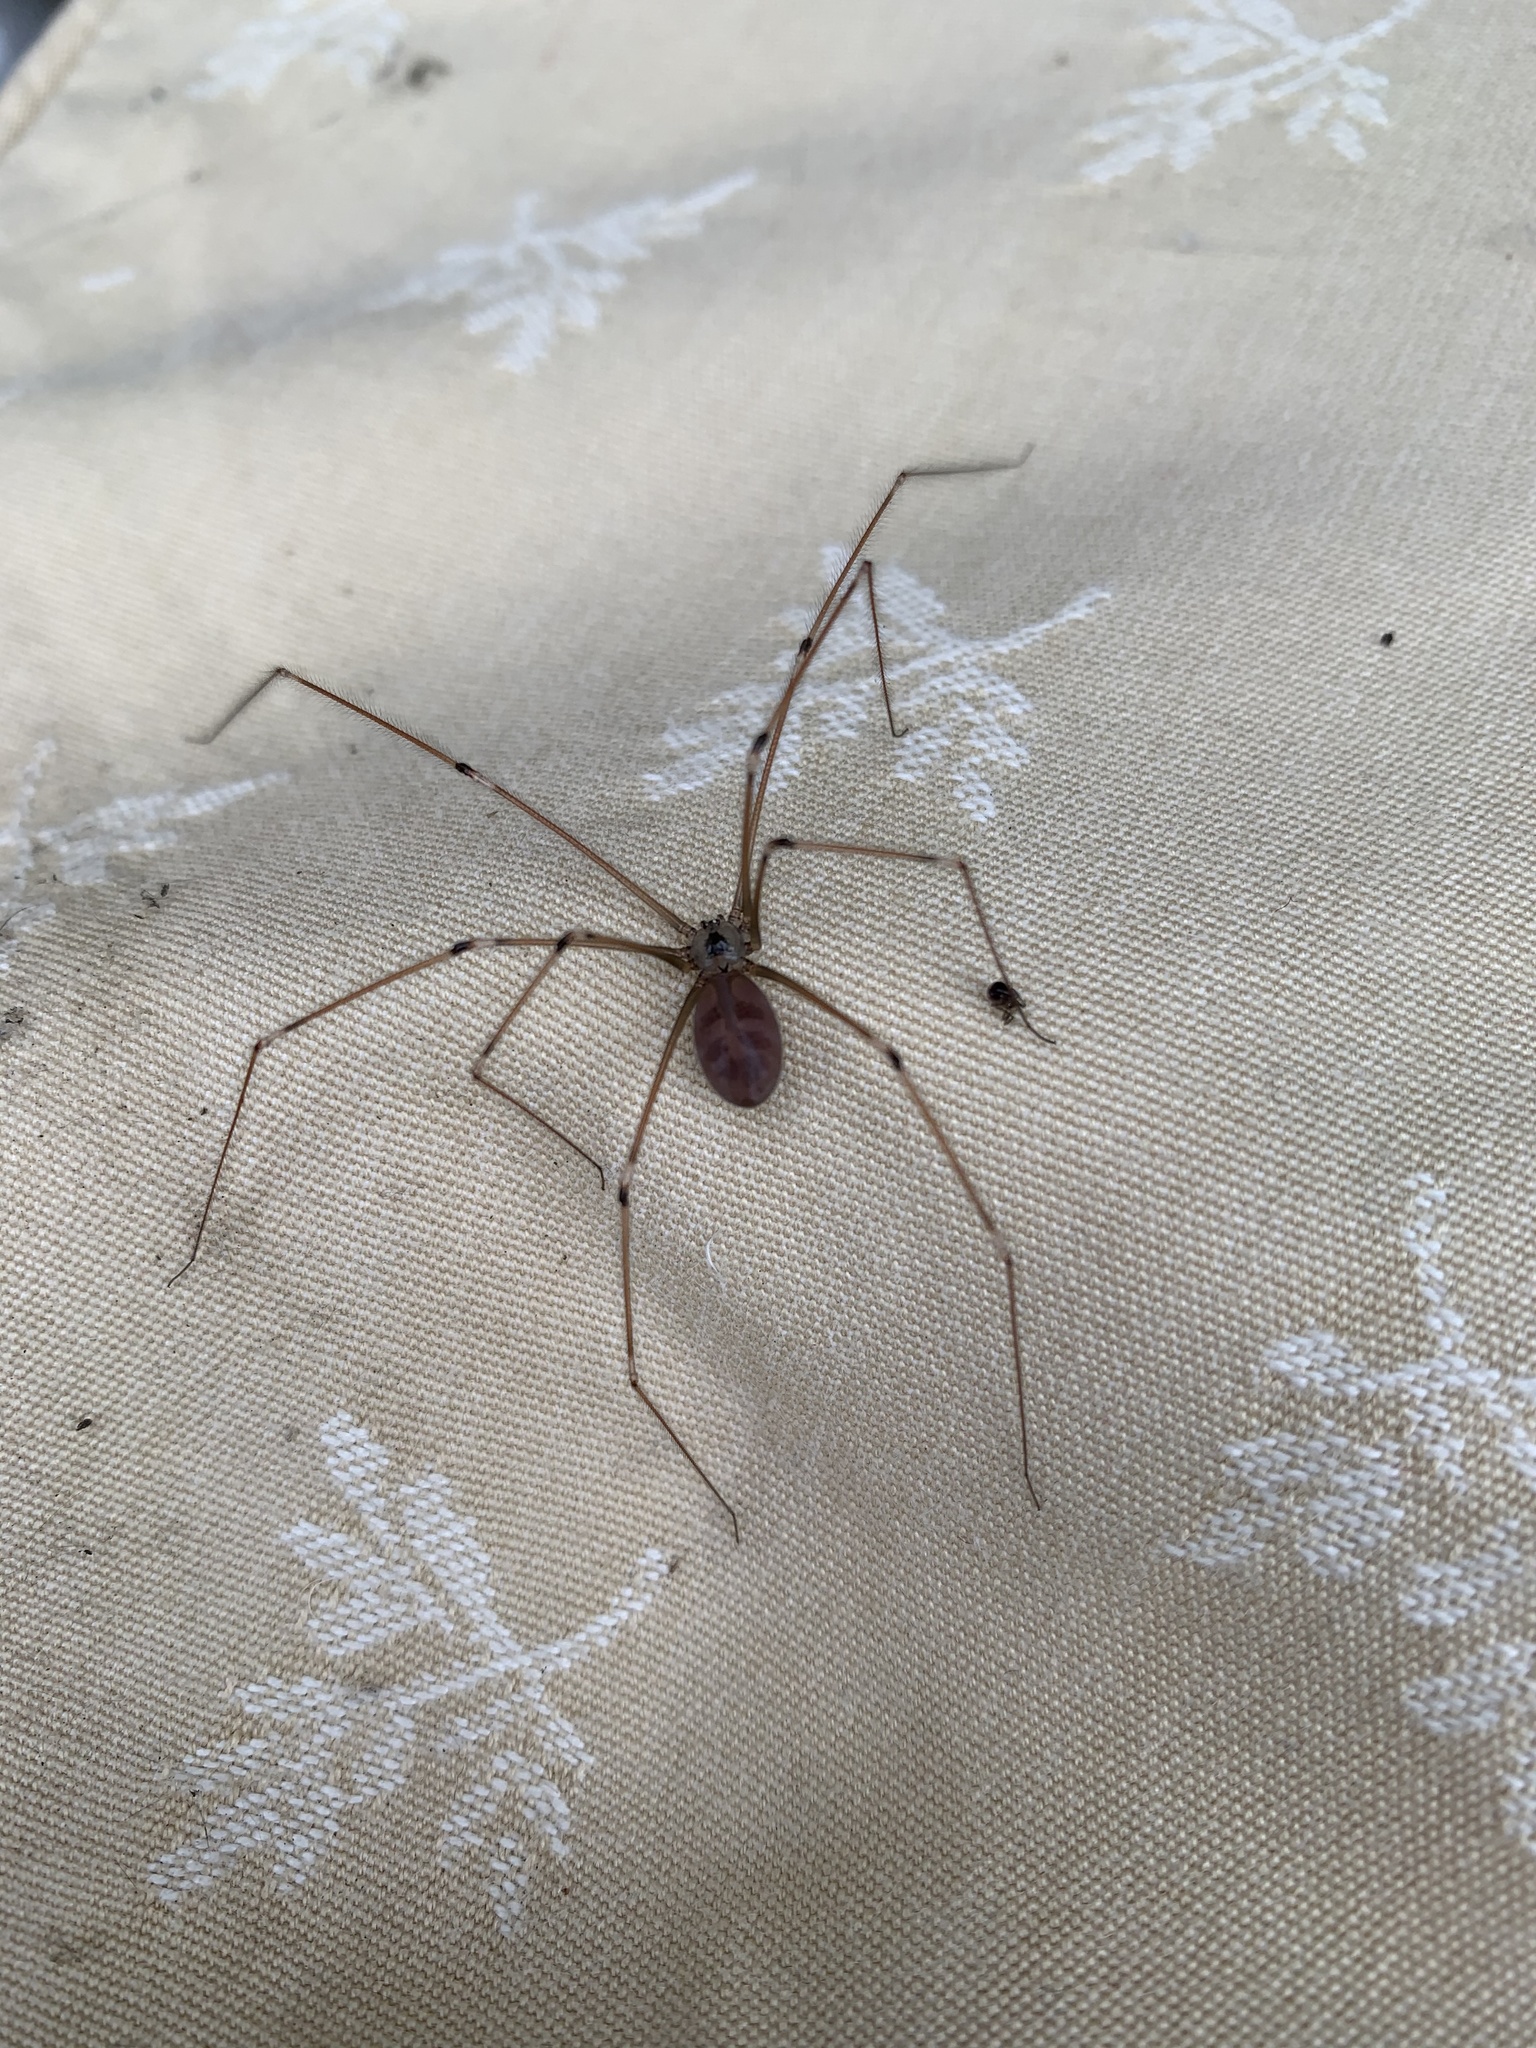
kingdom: Animalia
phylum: Arthropoda
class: Arachnida
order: Araneae
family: Pholcidae
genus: Pholcus
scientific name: Pholcus phalangioides
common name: Longbodied cellar spider
